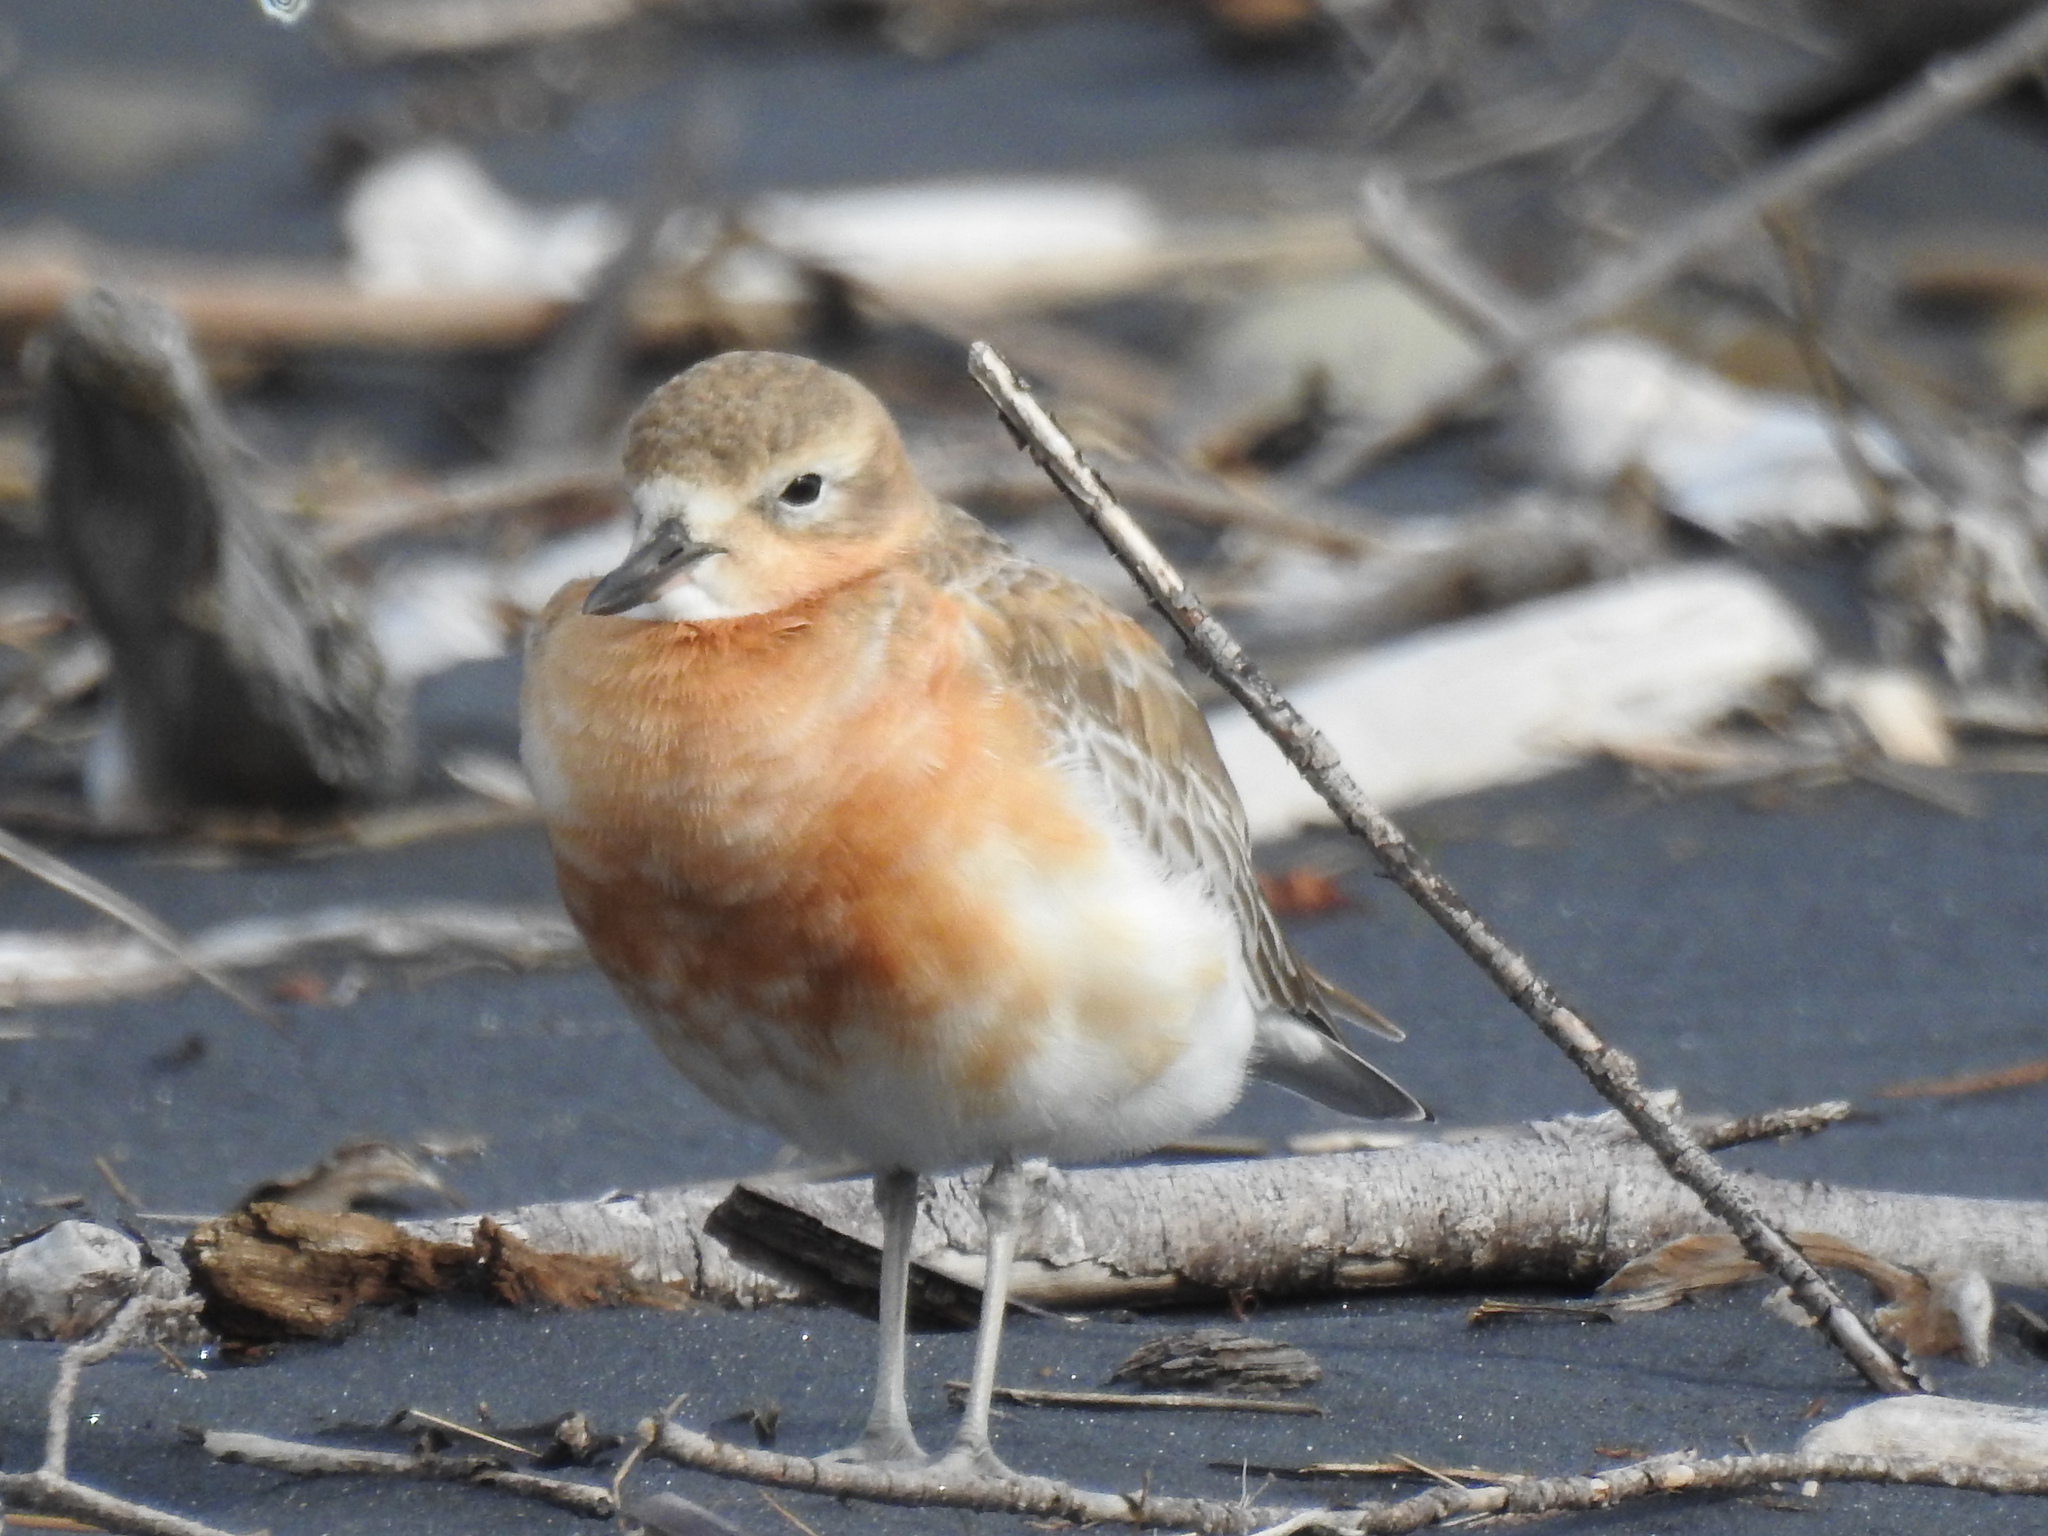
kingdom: Animalia
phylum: Chordata
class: Aves
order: Charadriiformes
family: Charadriidae
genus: Anarhynchus
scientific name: Anarhynchus
